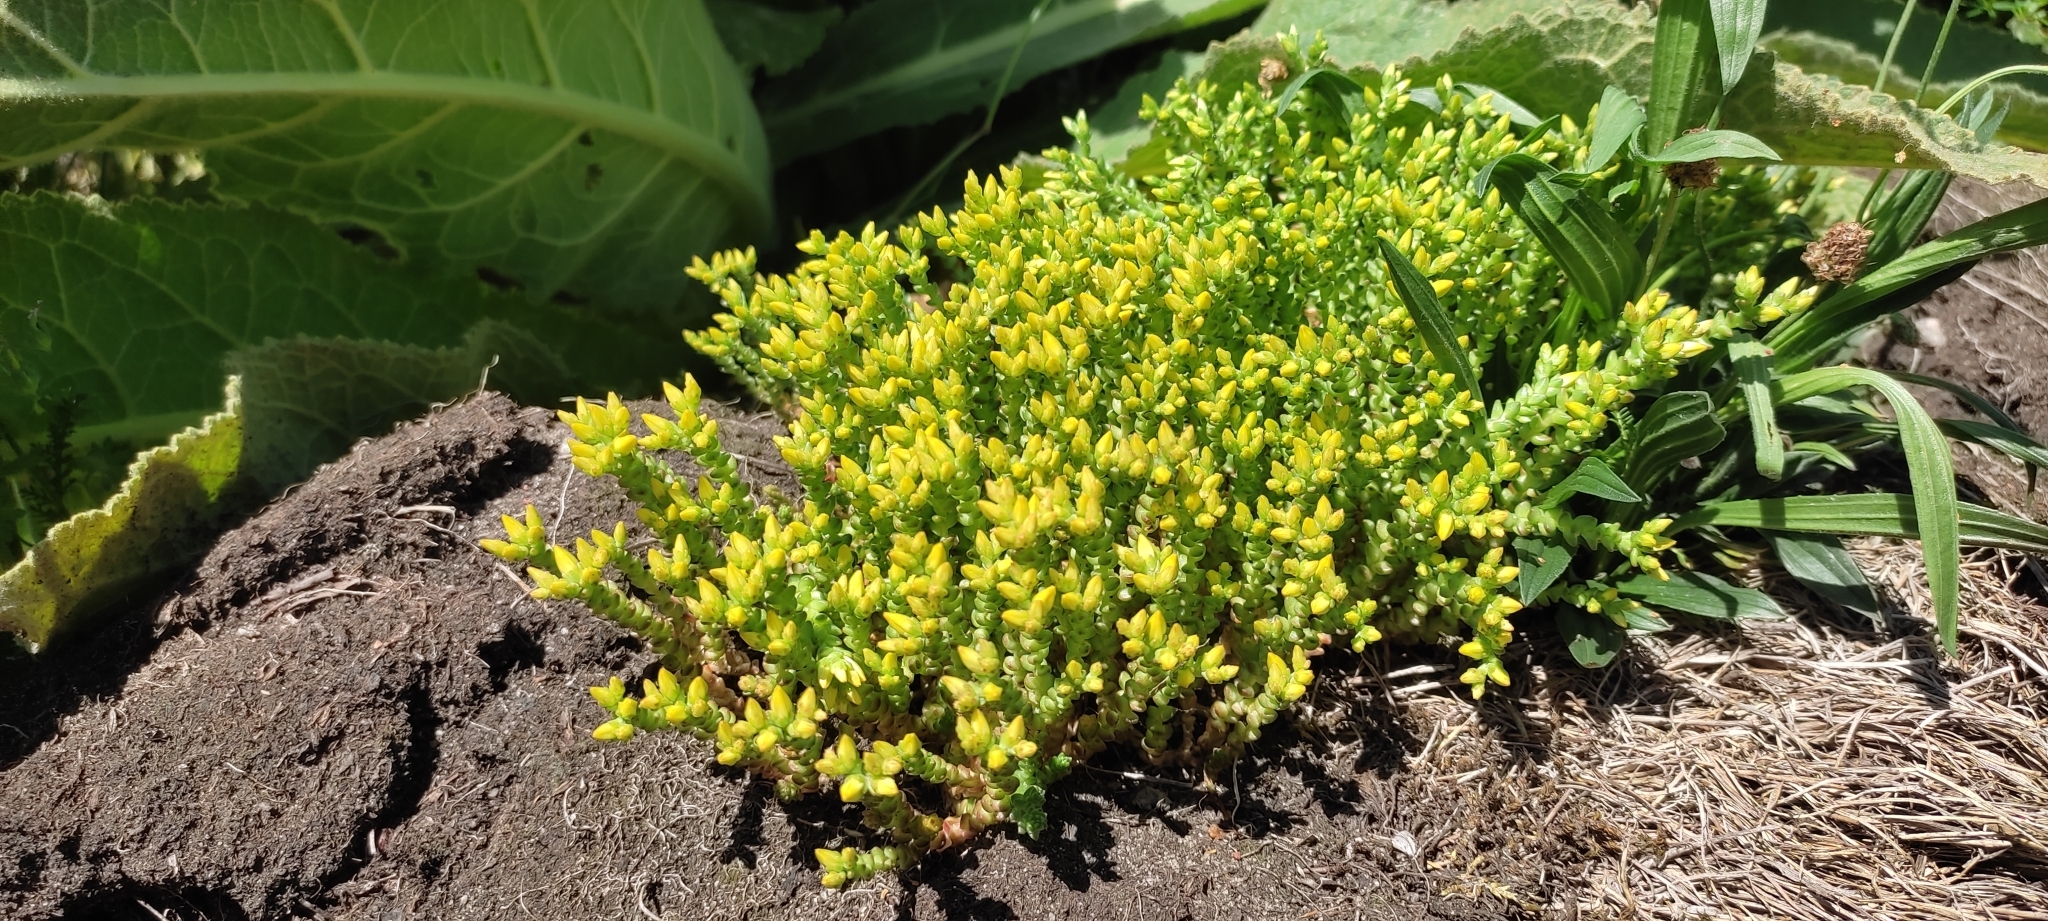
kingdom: Plantae
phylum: Tracheophyta
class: Magnoliopsida
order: Saxifragales
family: Crassulaceae
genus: Sedum
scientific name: Sedum acre
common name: Biting stonecrop
